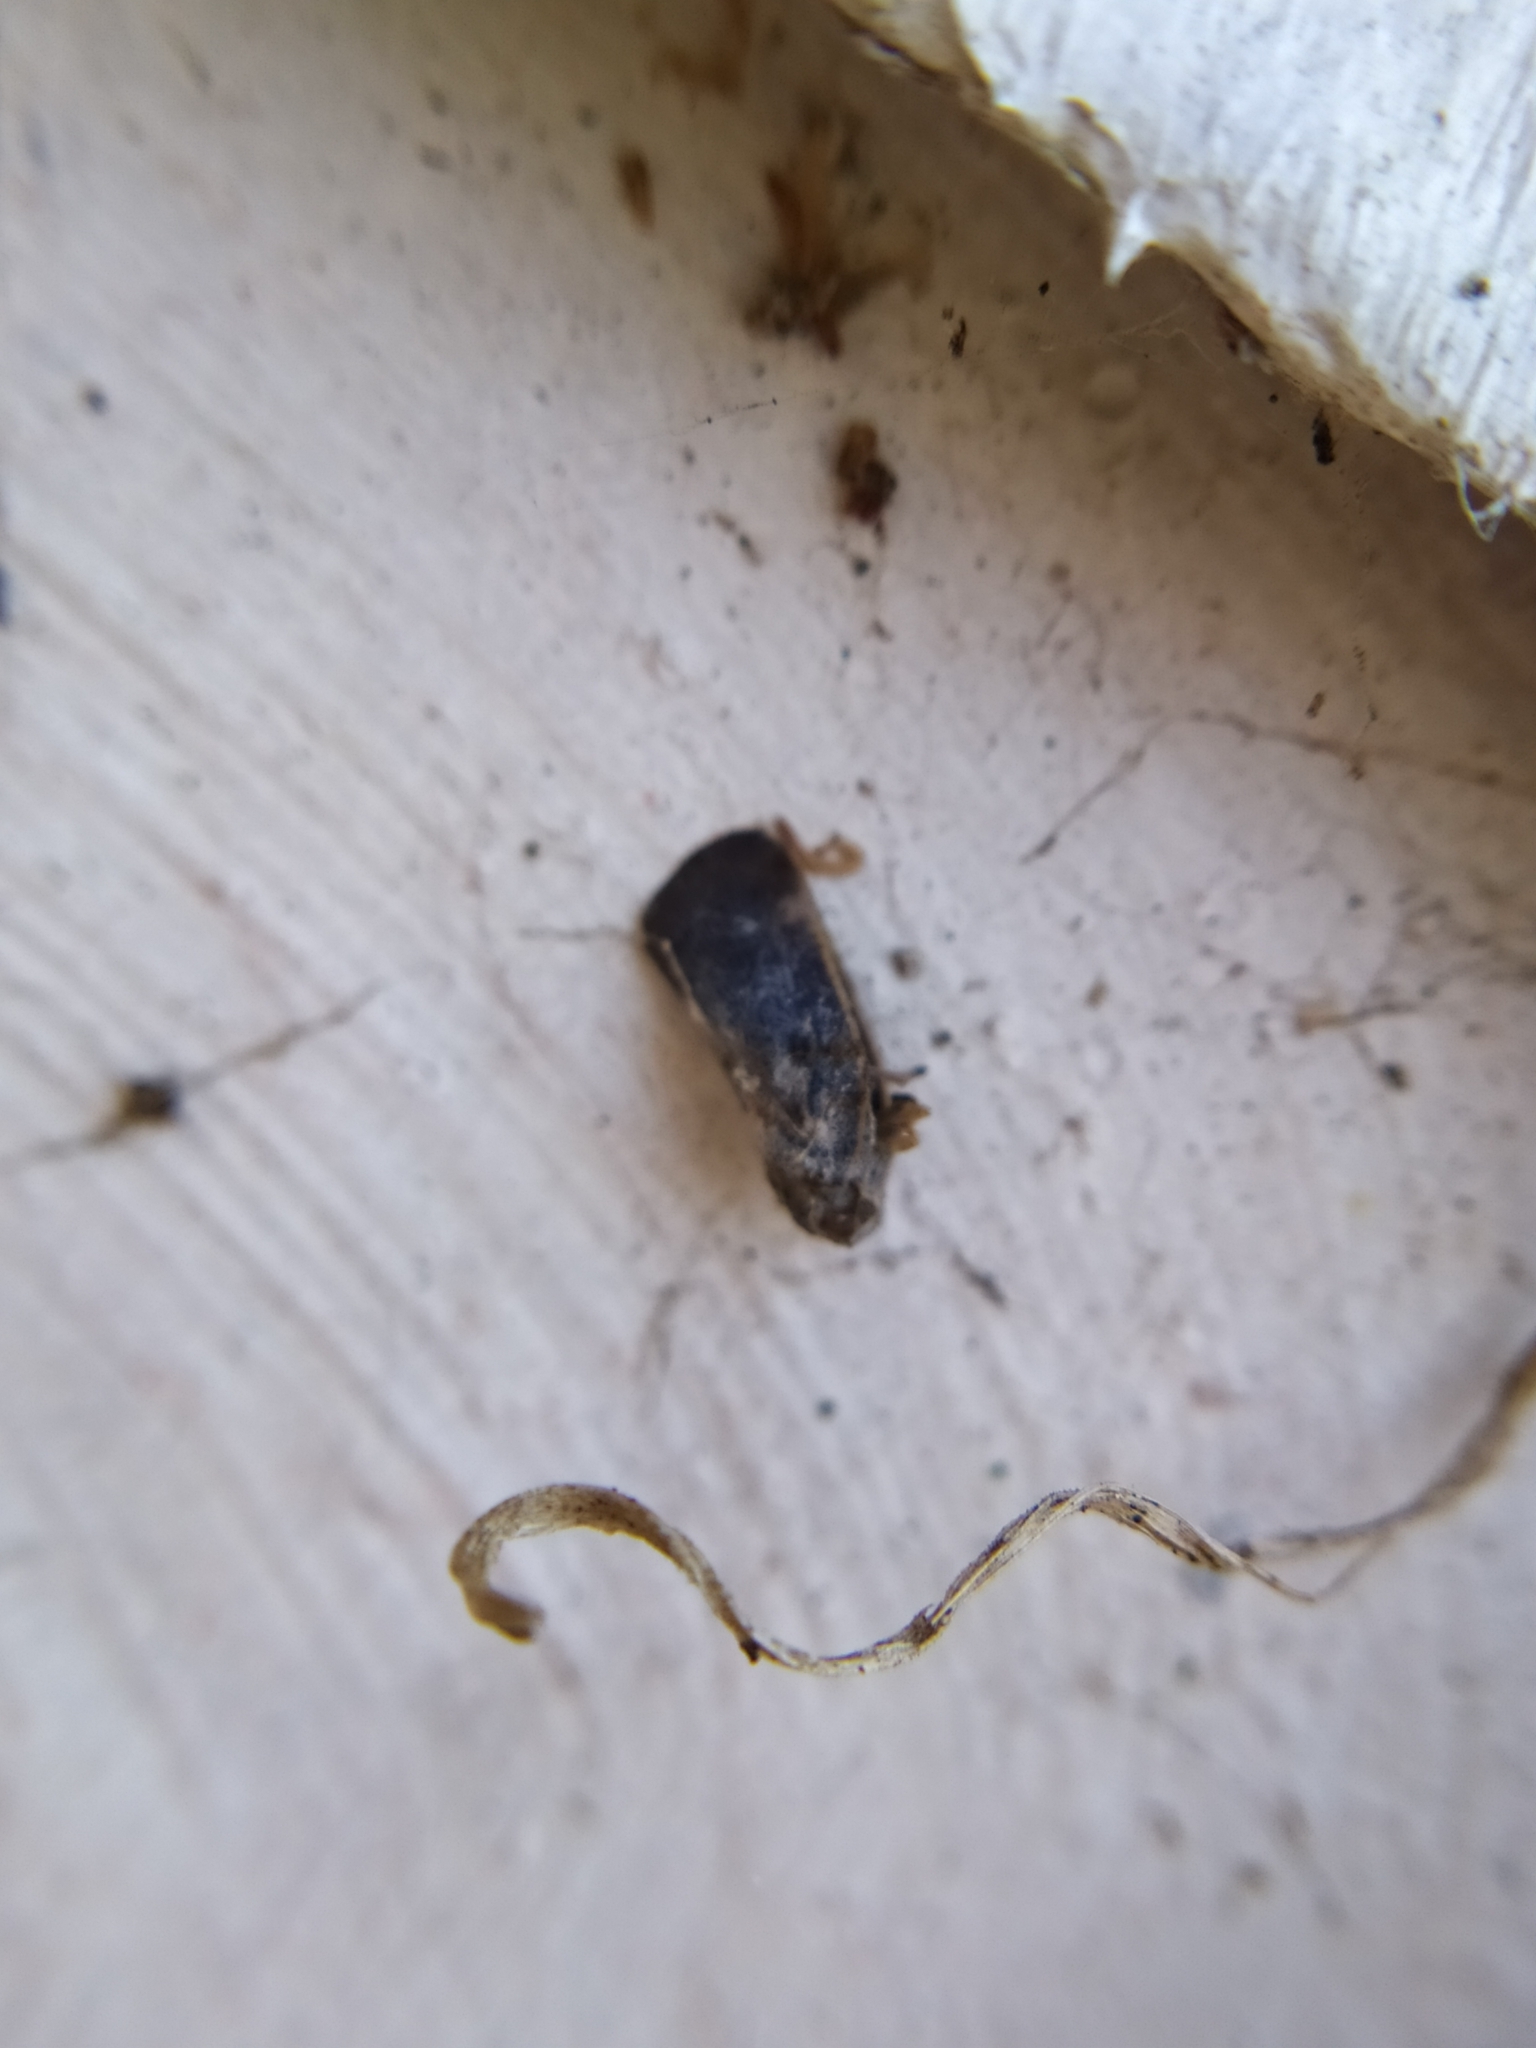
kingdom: Animalia
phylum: Arthropoda
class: Insecta
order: Hemiptera
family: Flatidae
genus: Metcalfa
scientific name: Metcalfa pruinosa
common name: Citrus flatid planthopper
